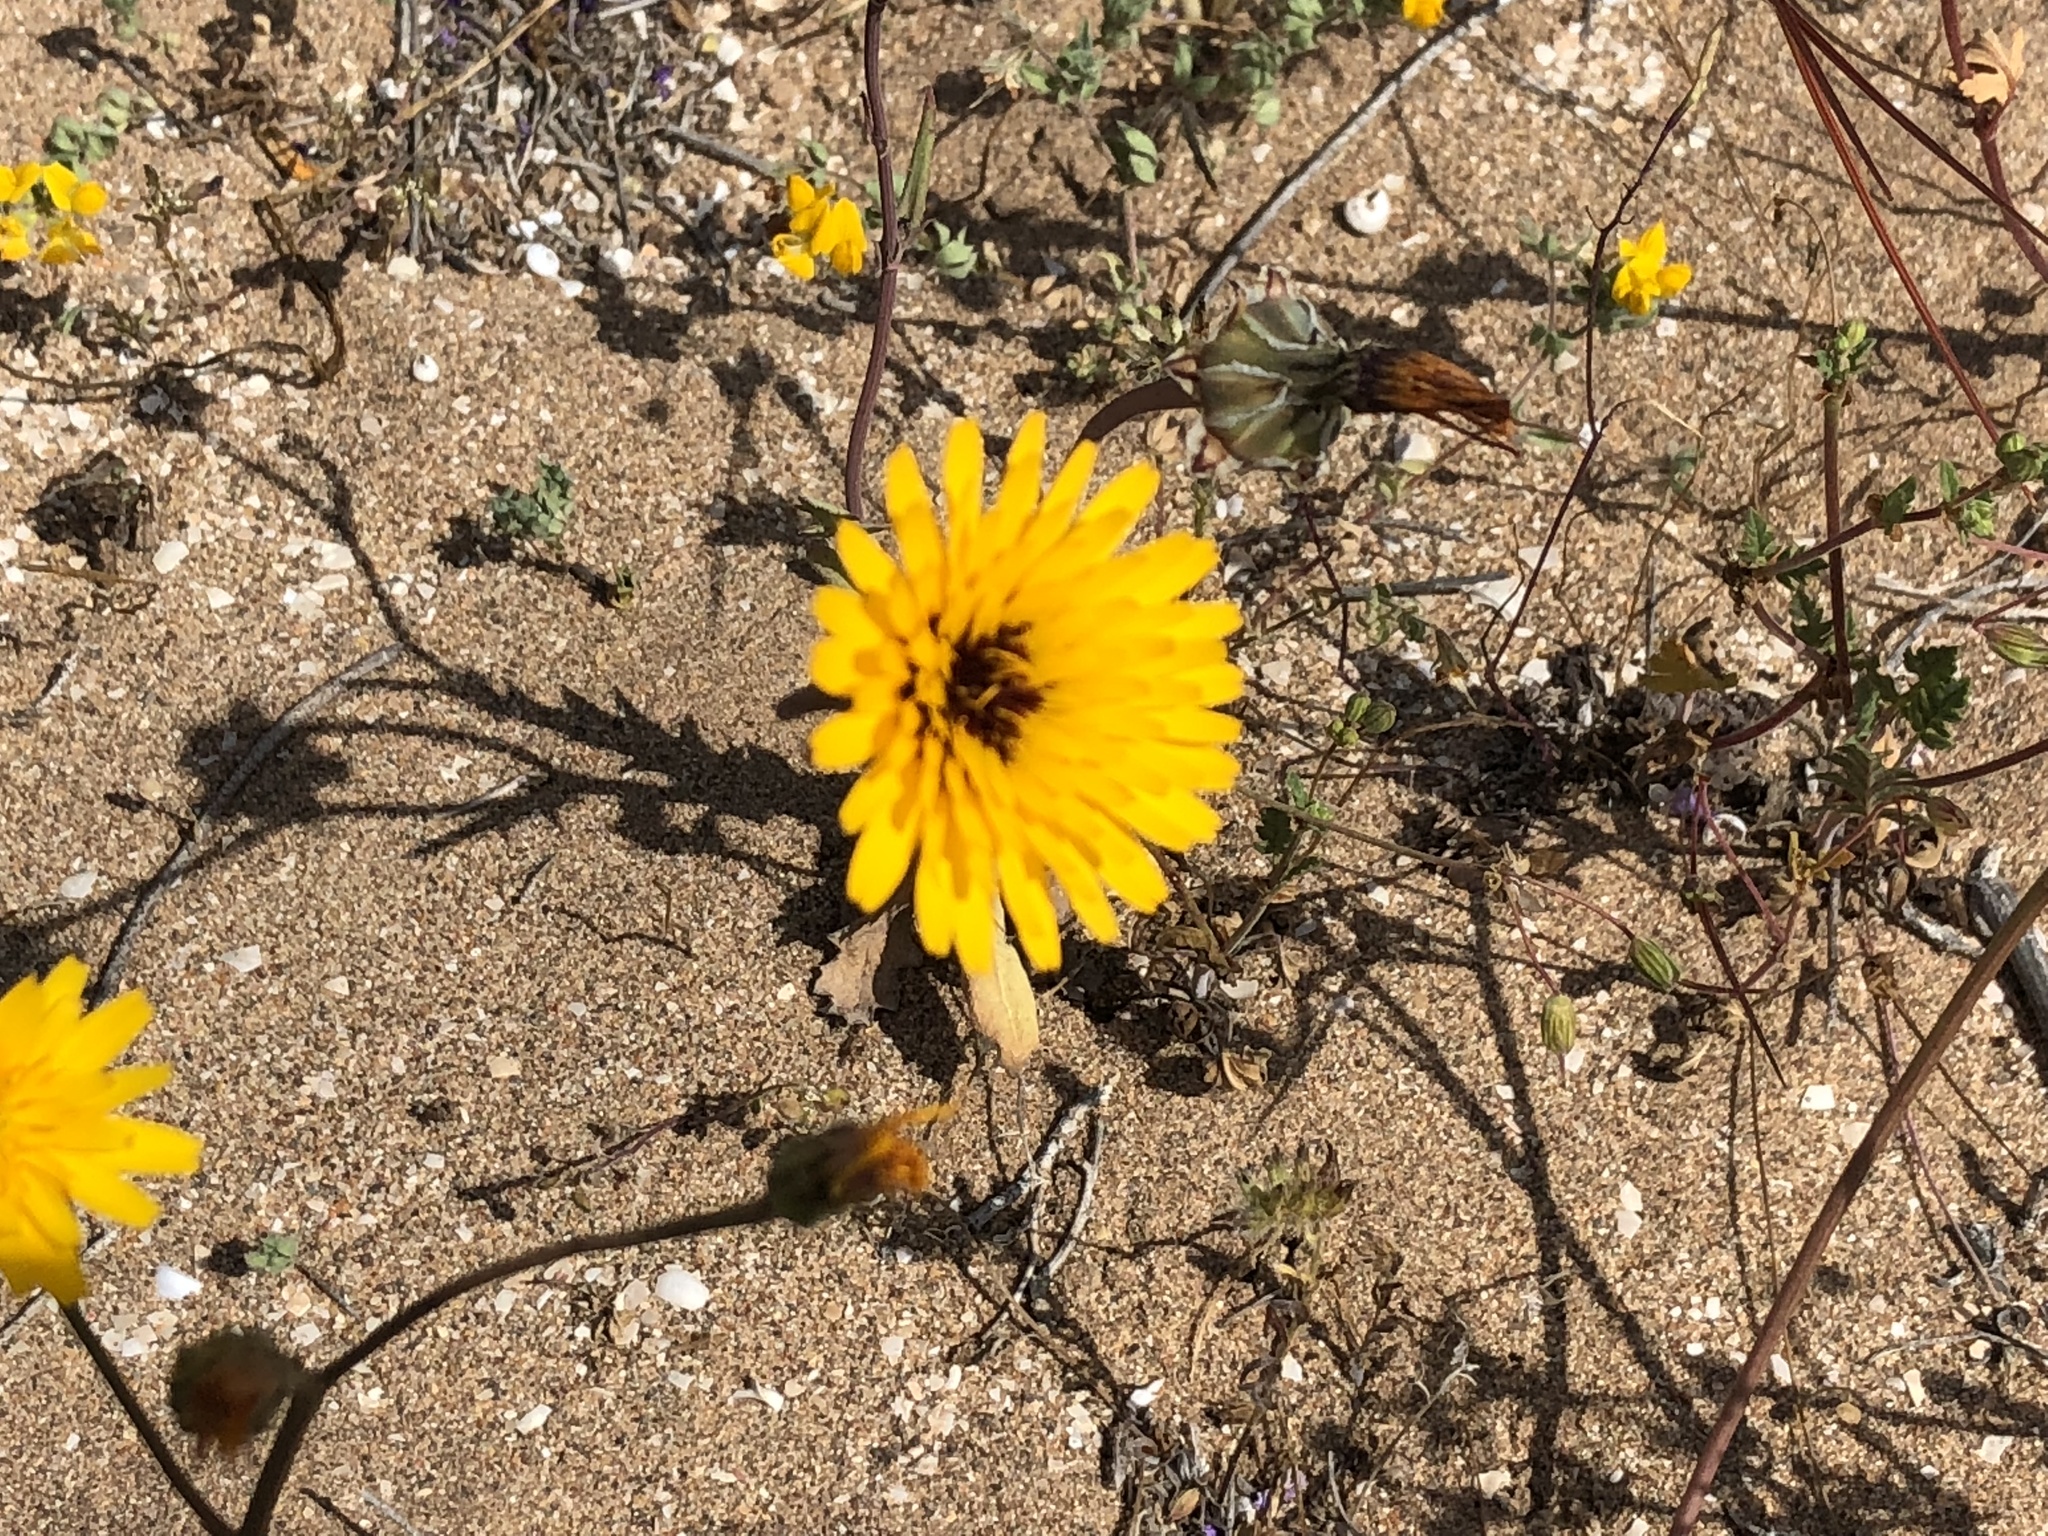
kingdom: Plantae
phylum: Tracheophyta
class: Magnoliopsida
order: Asterales
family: Asteraceae
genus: Reichardia
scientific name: Reichardia tingitana
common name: Reichardia
